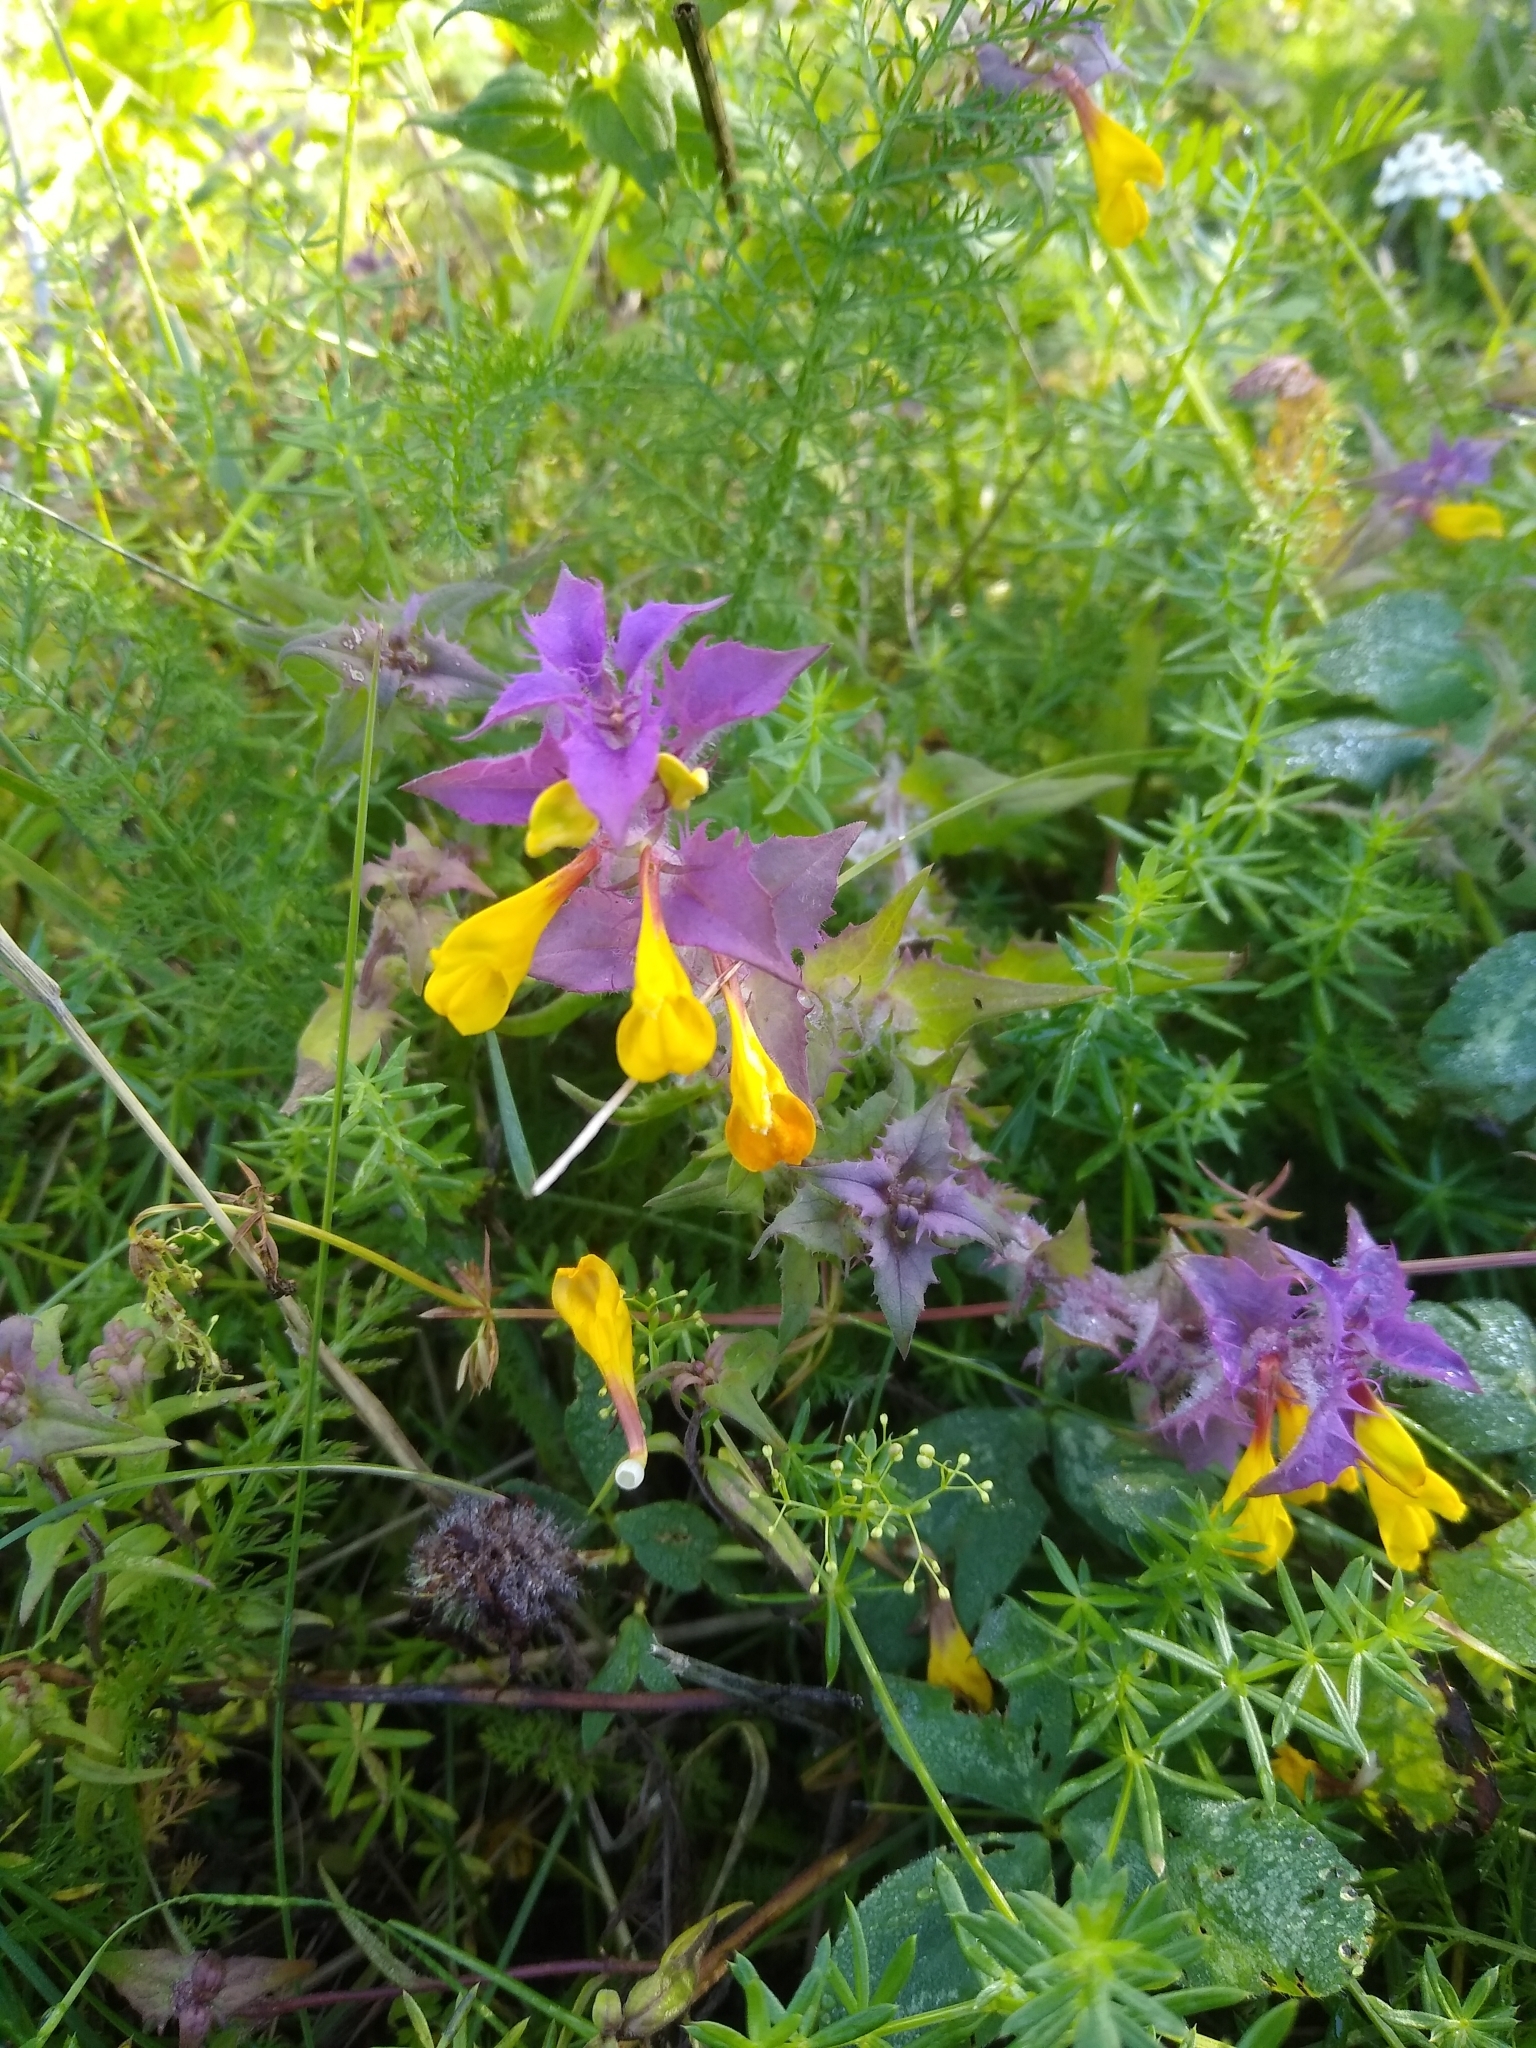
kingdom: Plantae
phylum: Tracheophyta
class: Magnoliopsida
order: Lamiales
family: Orobanchaceae
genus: Melampyrum
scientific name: Melampyrum nemorosum
